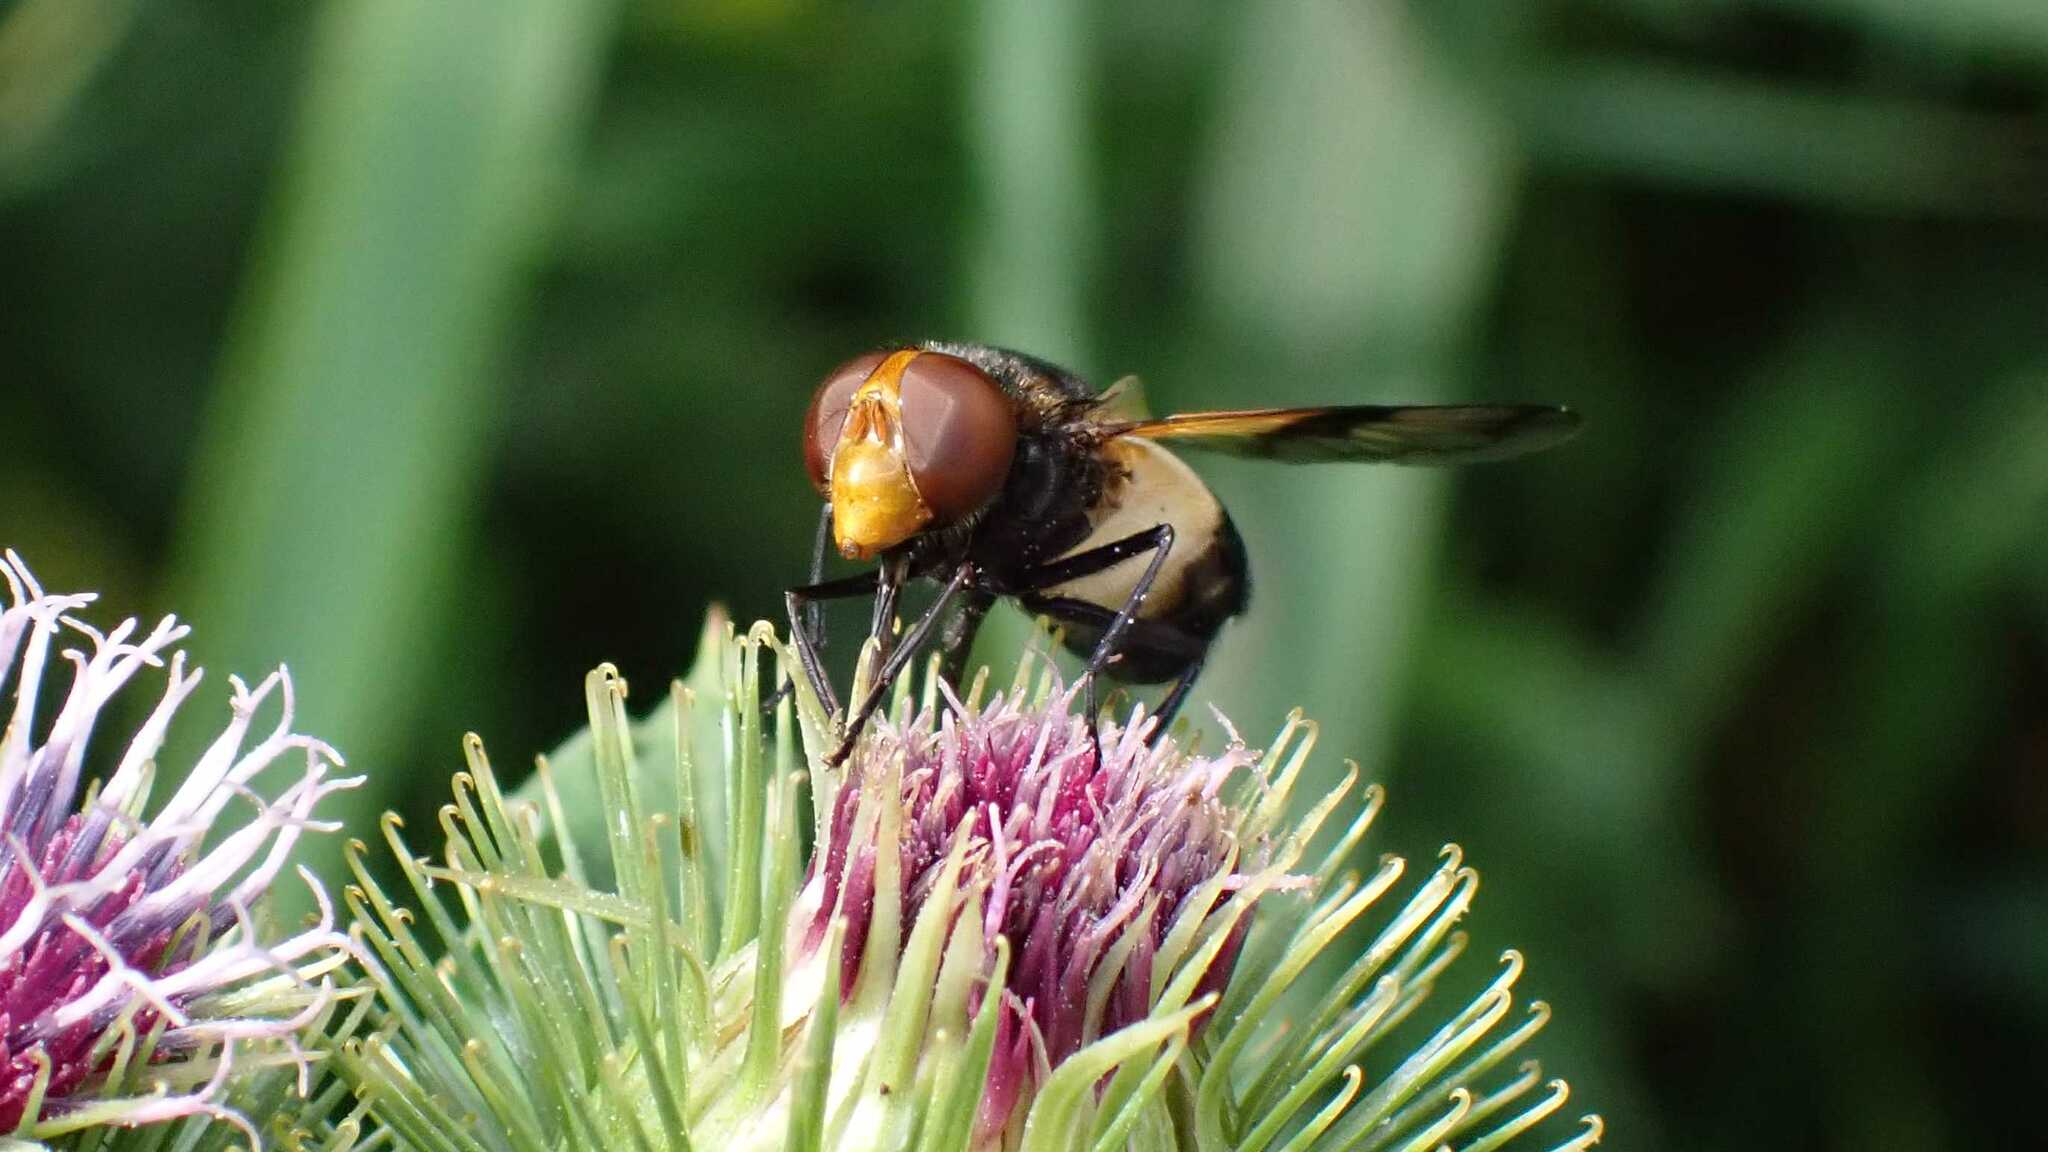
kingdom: Animalia
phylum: Arthropoda
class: Insecta
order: Diptera
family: Syrphidae
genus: Volucella
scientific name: Volucella pellucens
